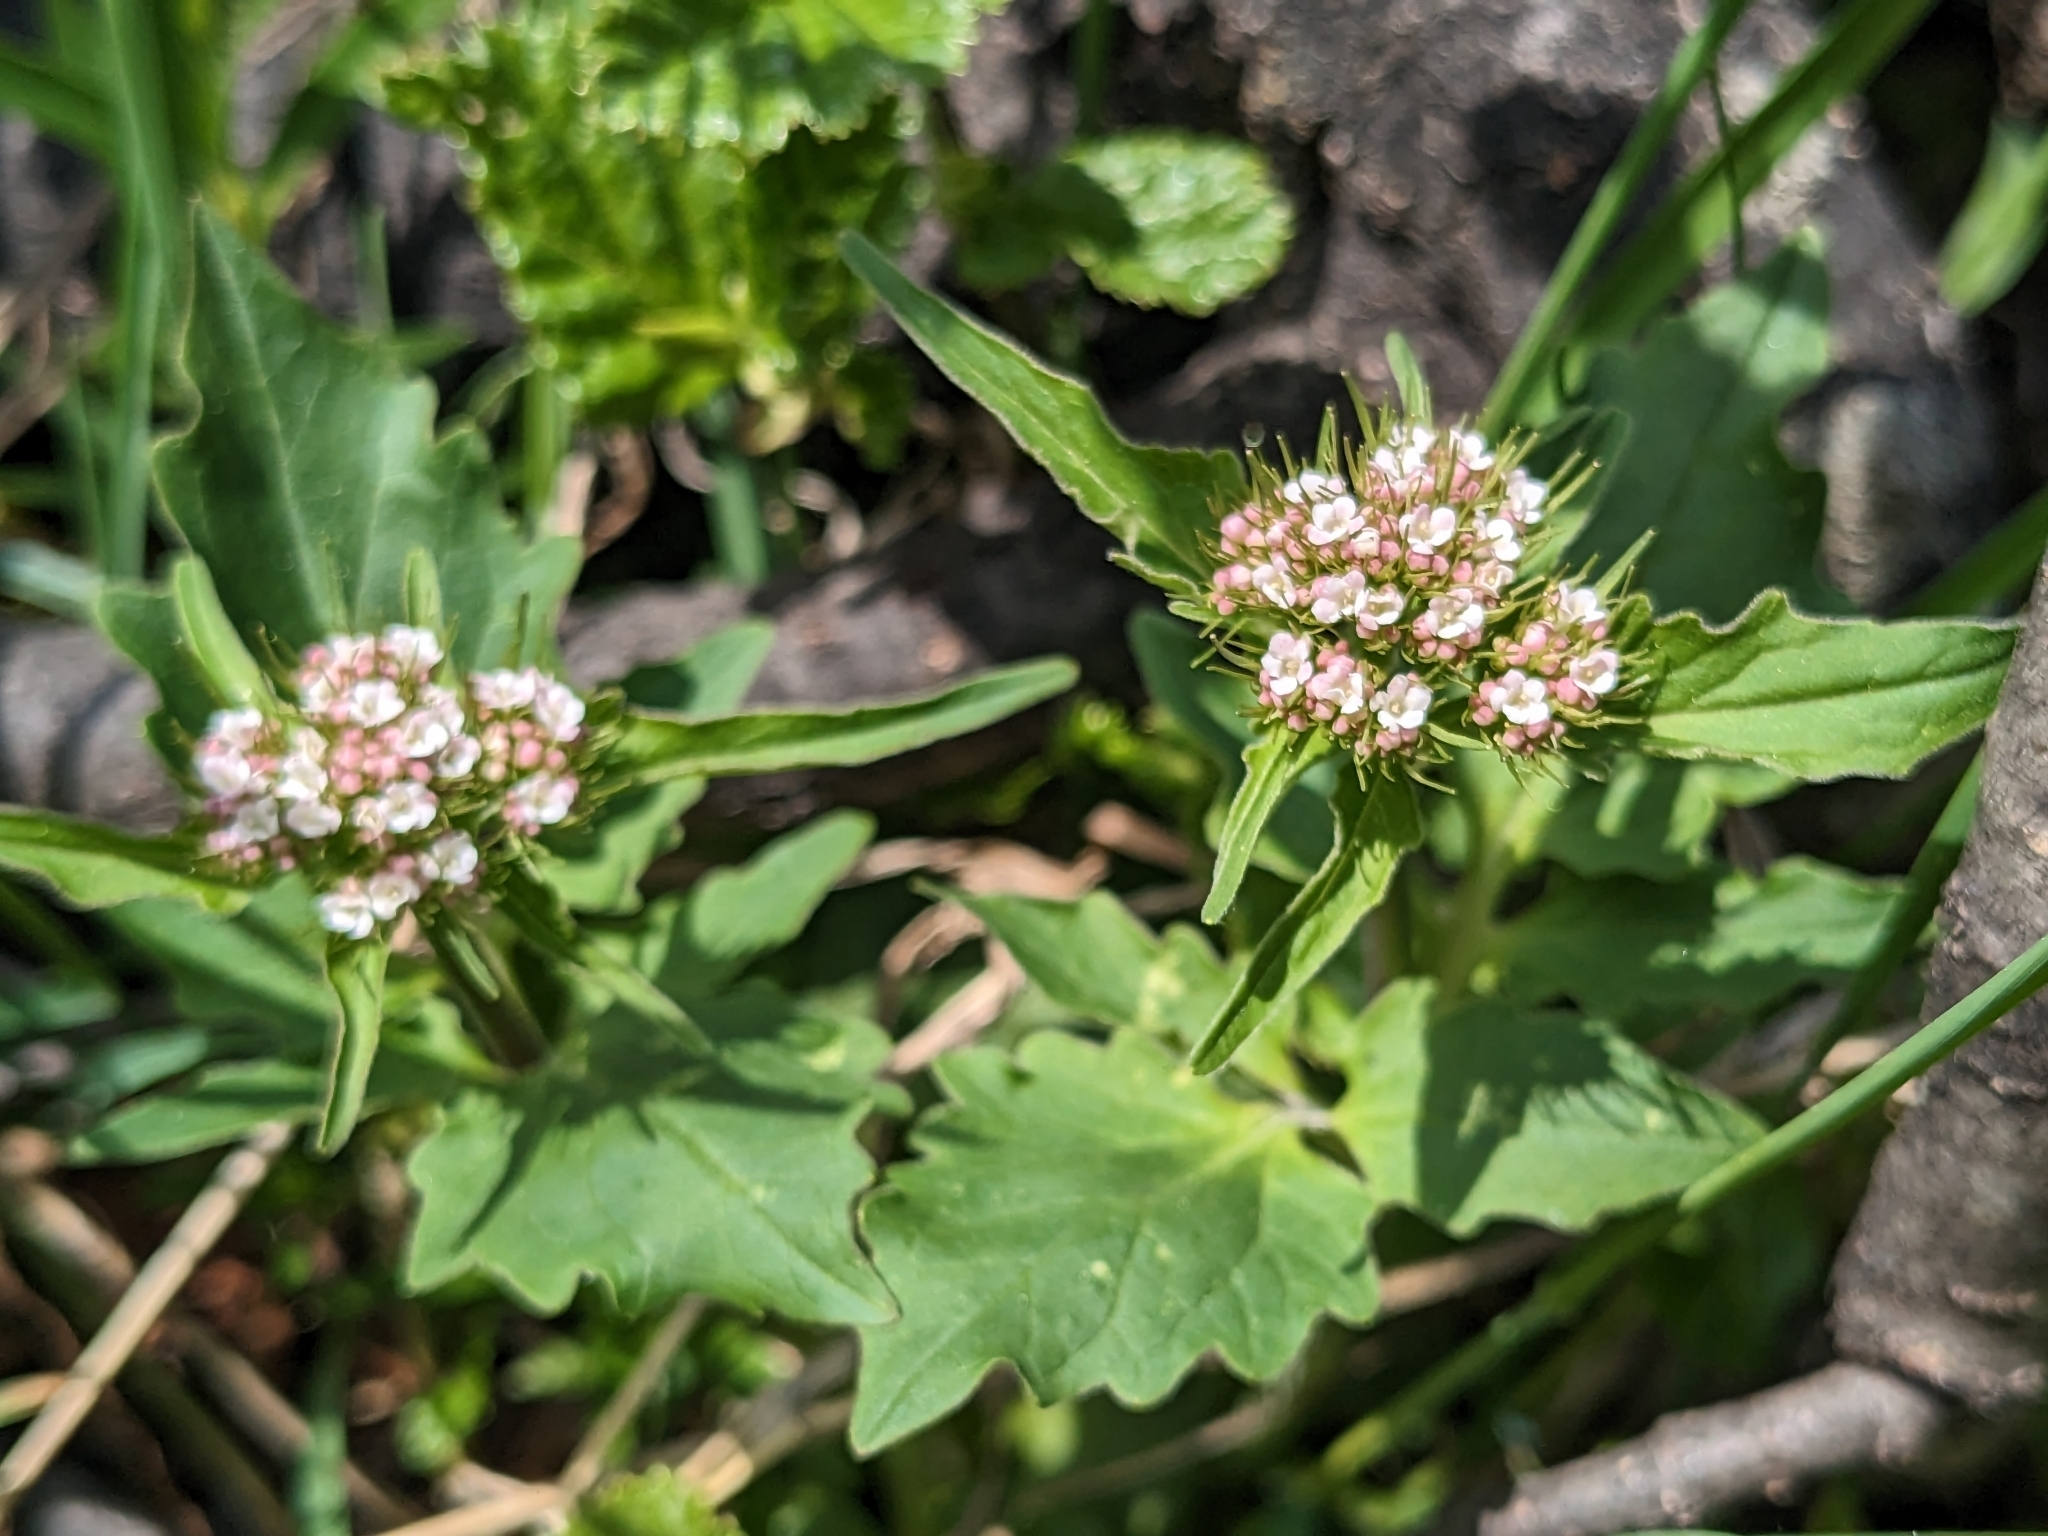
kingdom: Plantae
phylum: Tracheophyta
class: Magnoliopsida
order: Dipsacales
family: Caprifoliaceae
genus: Valeriana
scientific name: Valeriana tripteris
